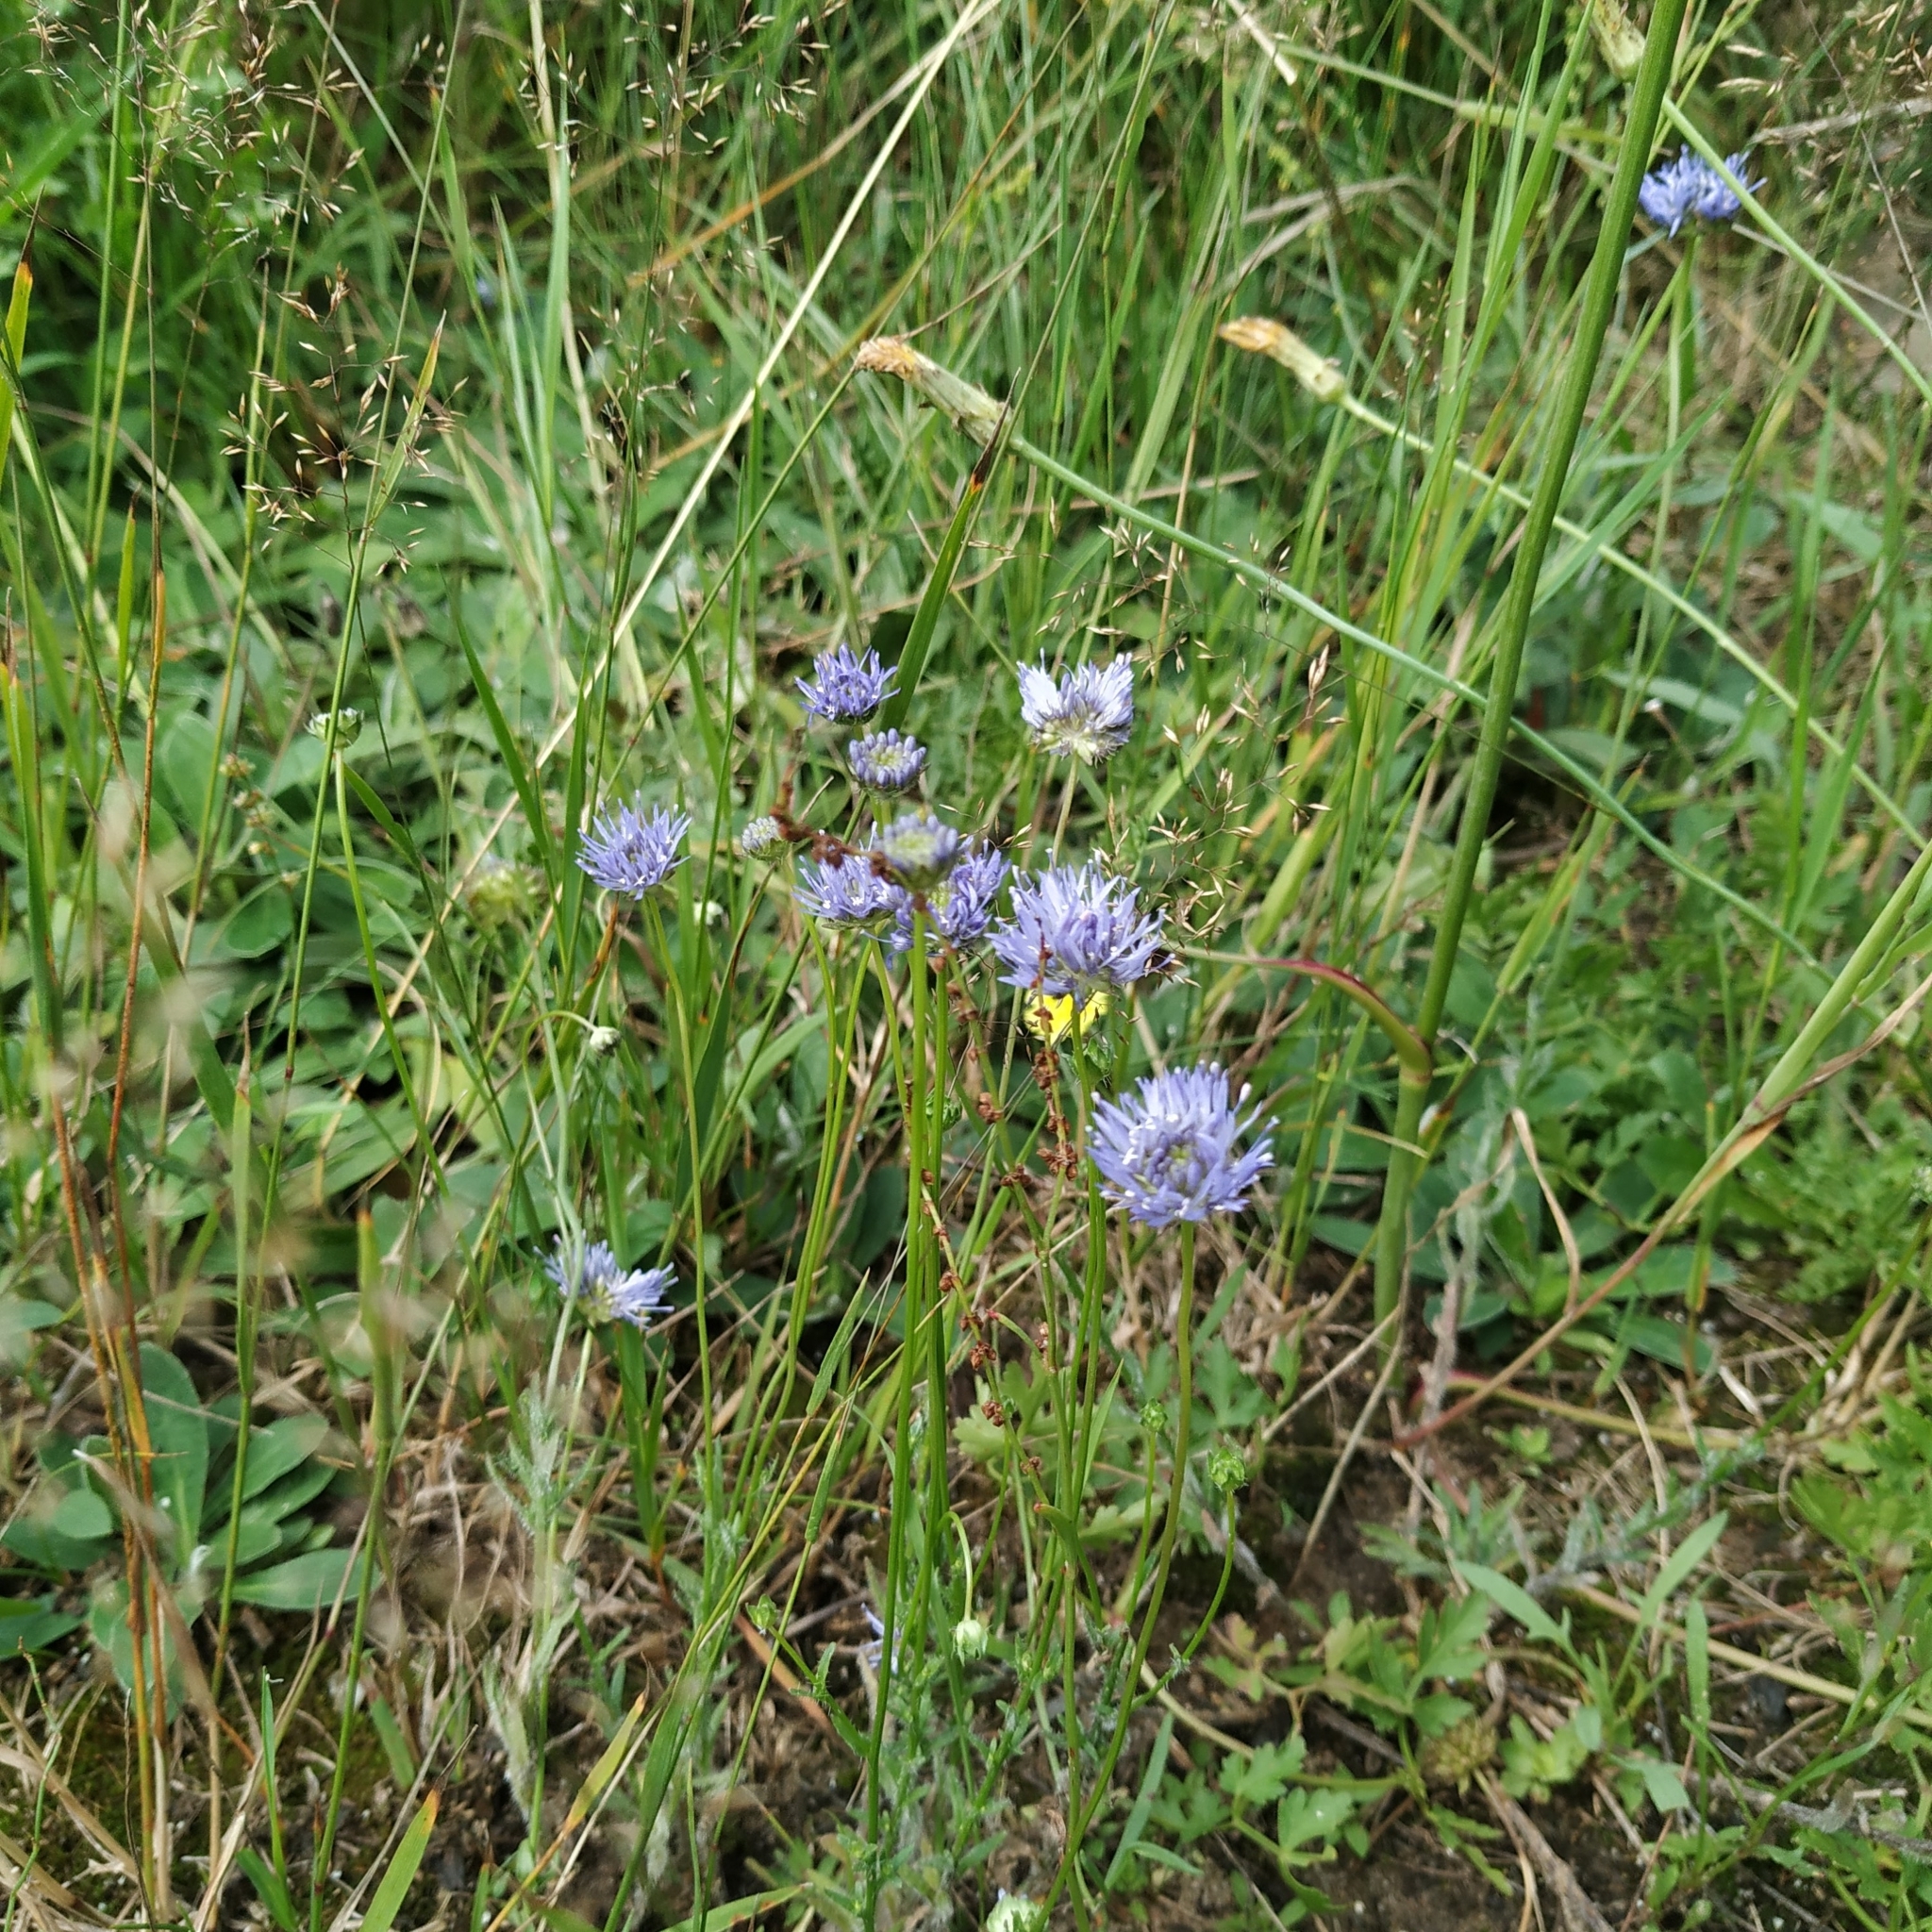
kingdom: Plantae
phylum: Tracheophyta
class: Magnoliopsida
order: Asterales
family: Campanulaceae
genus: Jasione
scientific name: Jasione montana
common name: Sheep's-bit
